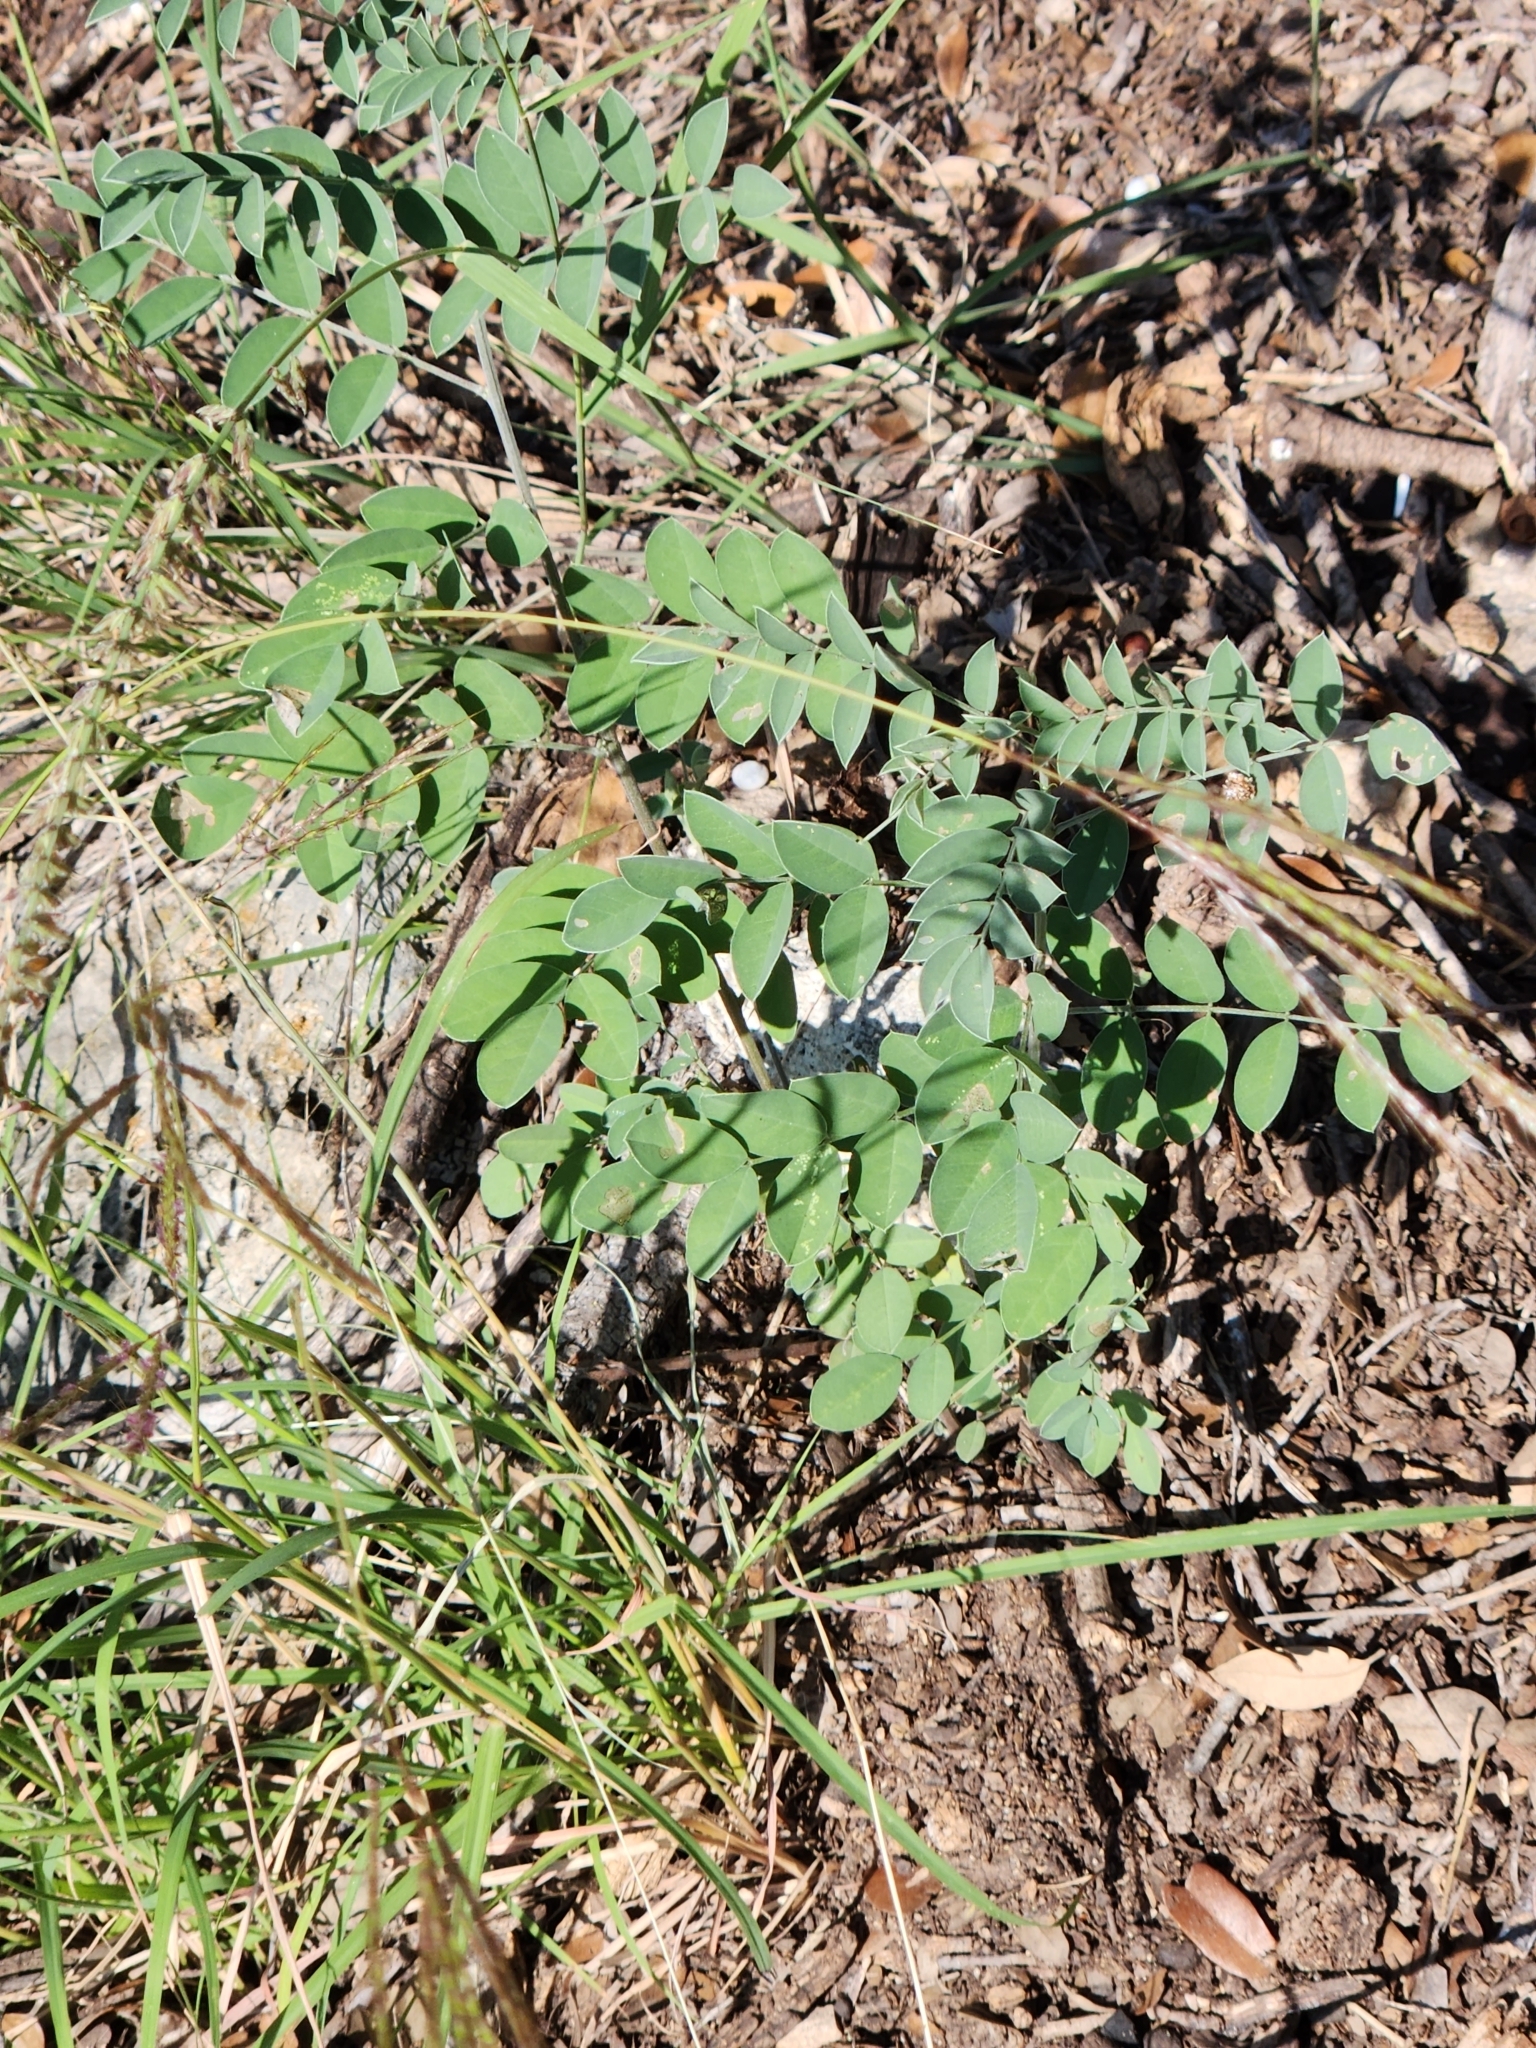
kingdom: Plantae
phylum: Tracheophyta
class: Magnoliopsida
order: Fabales
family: Fabaceae
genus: Indigofera
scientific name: Indigofera lindheimeriana
